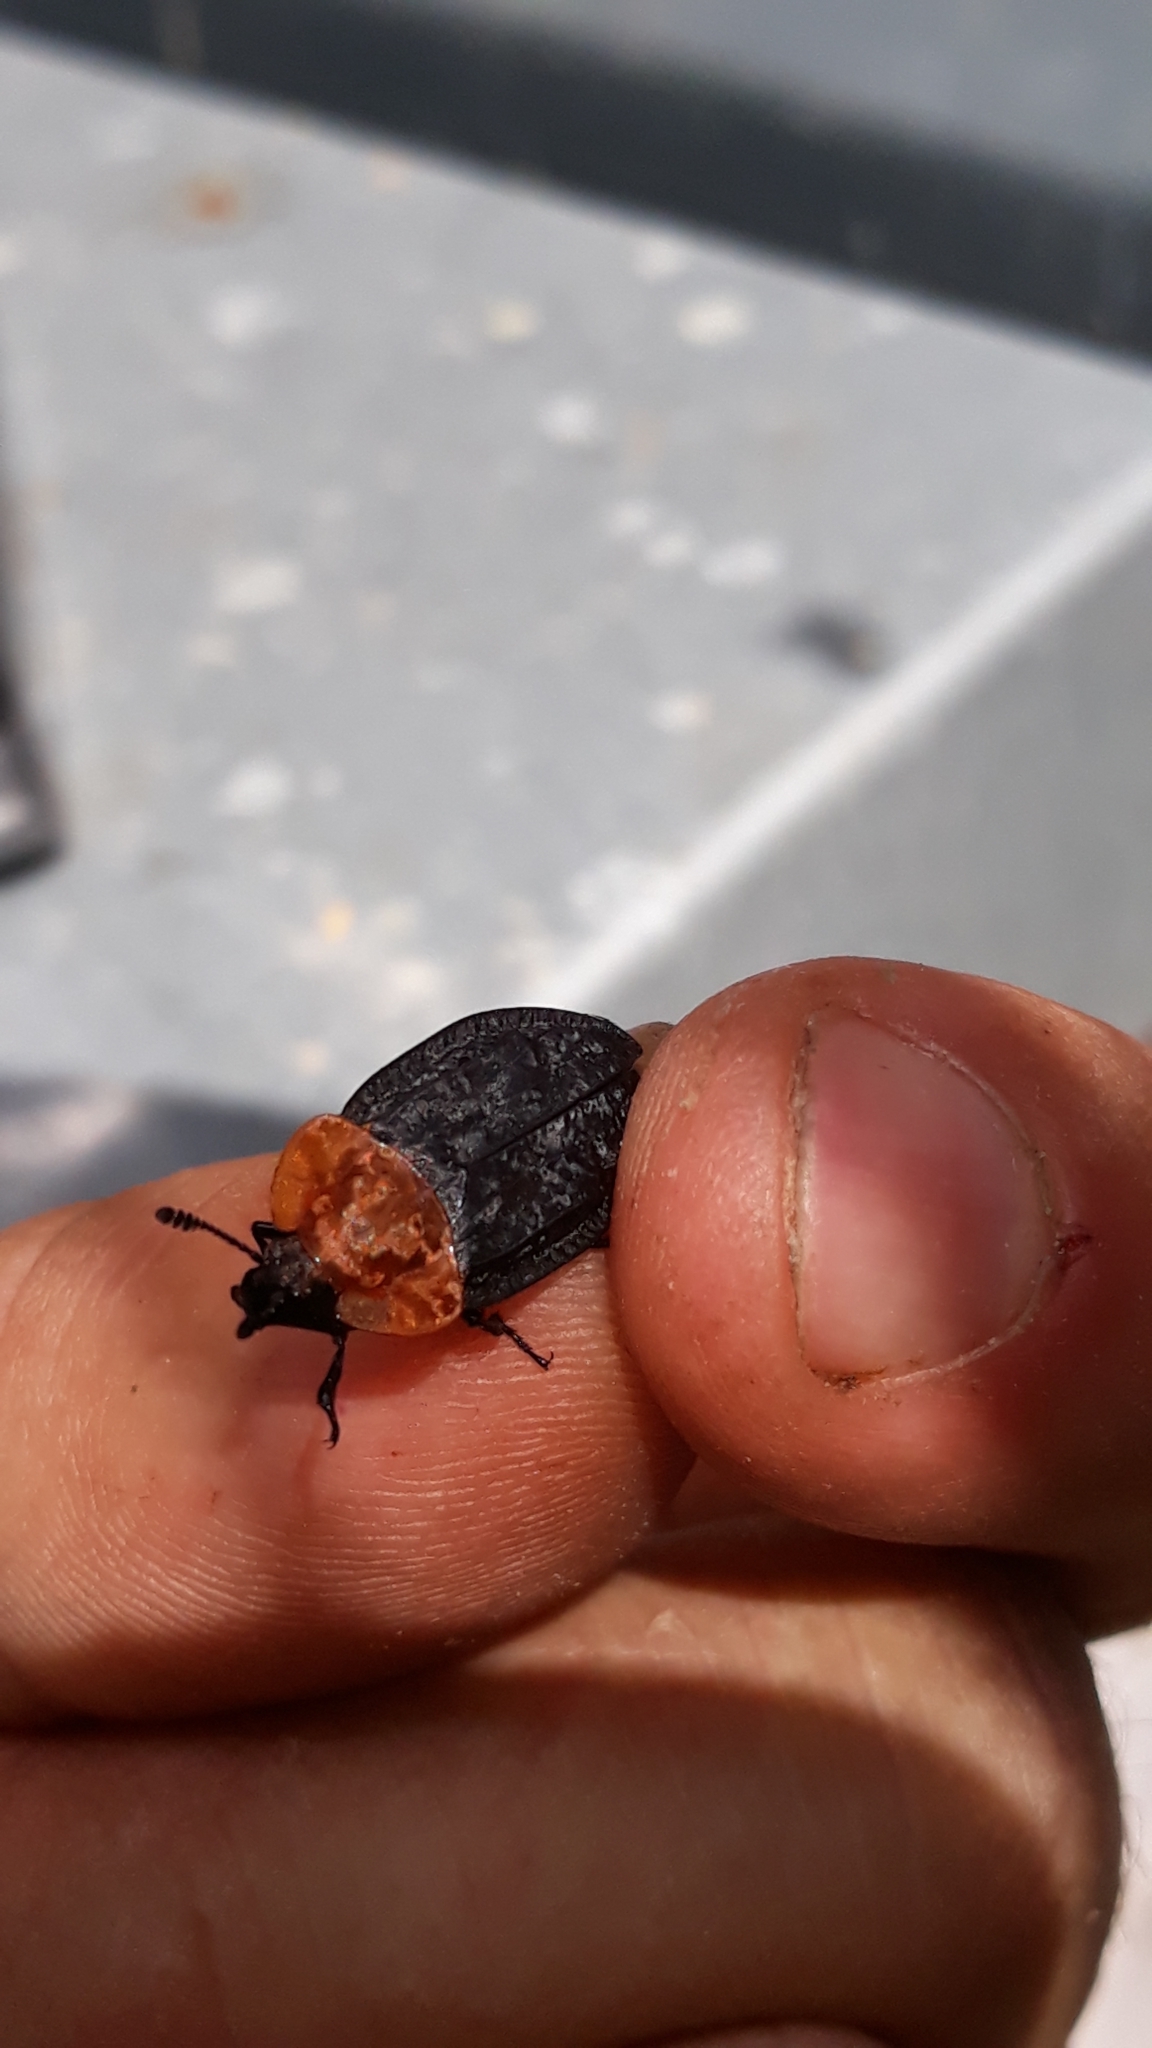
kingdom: Animalia
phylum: Arthropoda
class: Insecta
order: Coleoptera
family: Staphylinidae
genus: Oiceoptoma
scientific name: Oiceoptoma thoracicum
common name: Red-breasted carrion beetle
